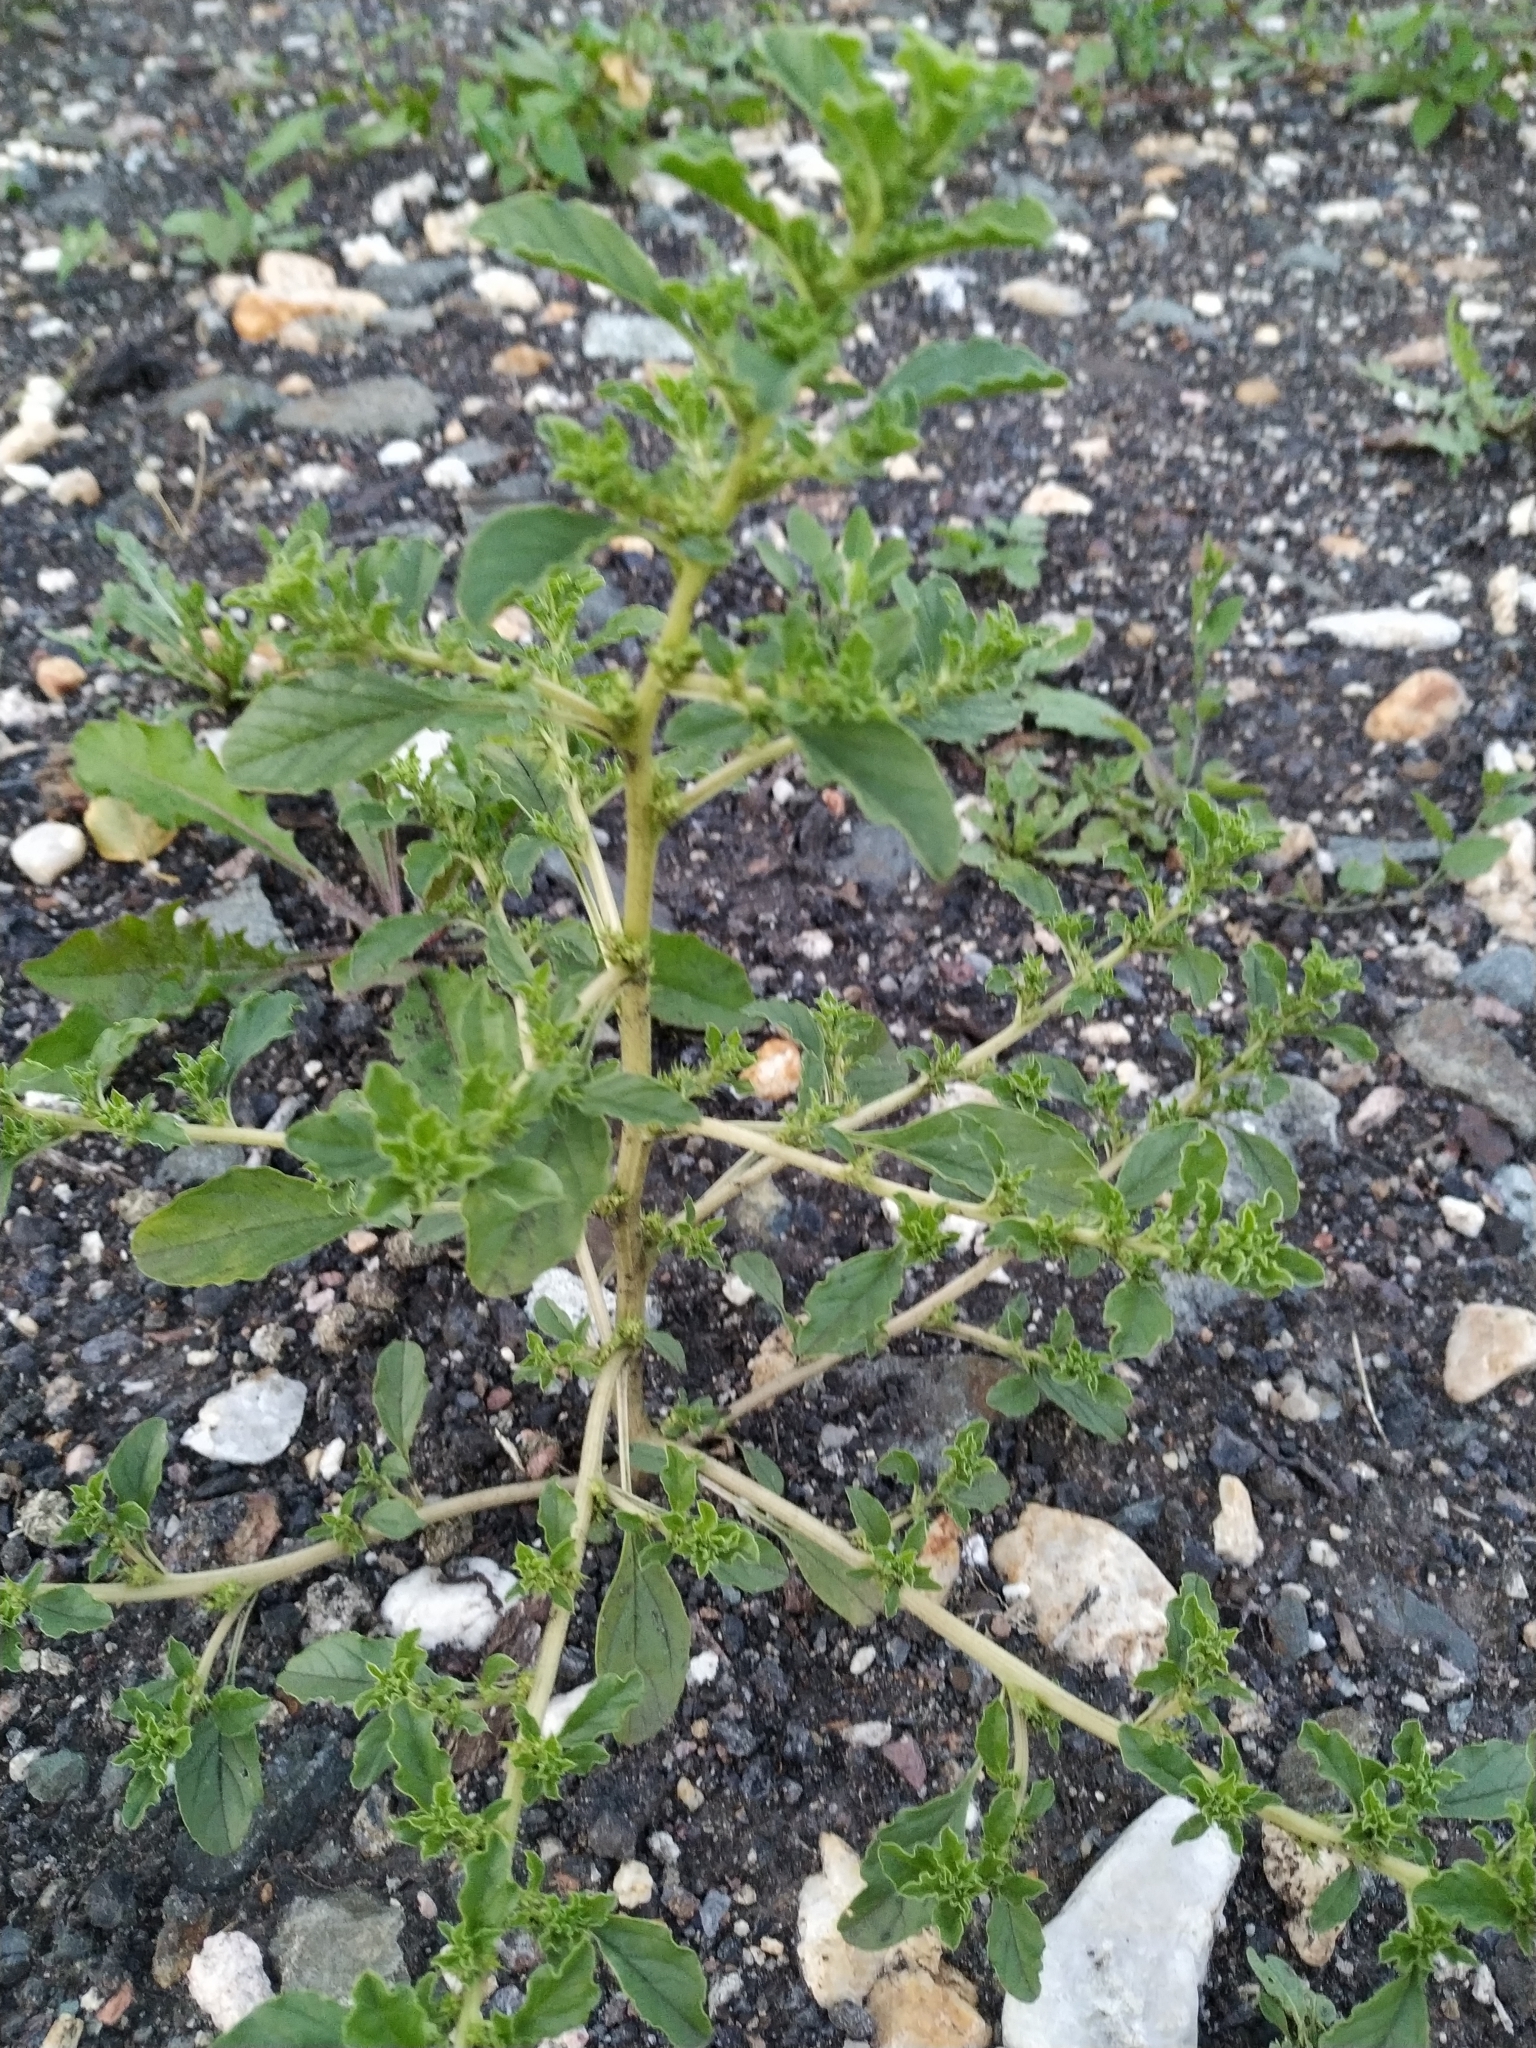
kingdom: Plantae
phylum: Tracheophyta
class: Magnoliopsida
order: Caryophyllales
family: Amaranthaceae
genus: Amaranthus
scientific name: Amaranthus albus
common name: White pigweed
